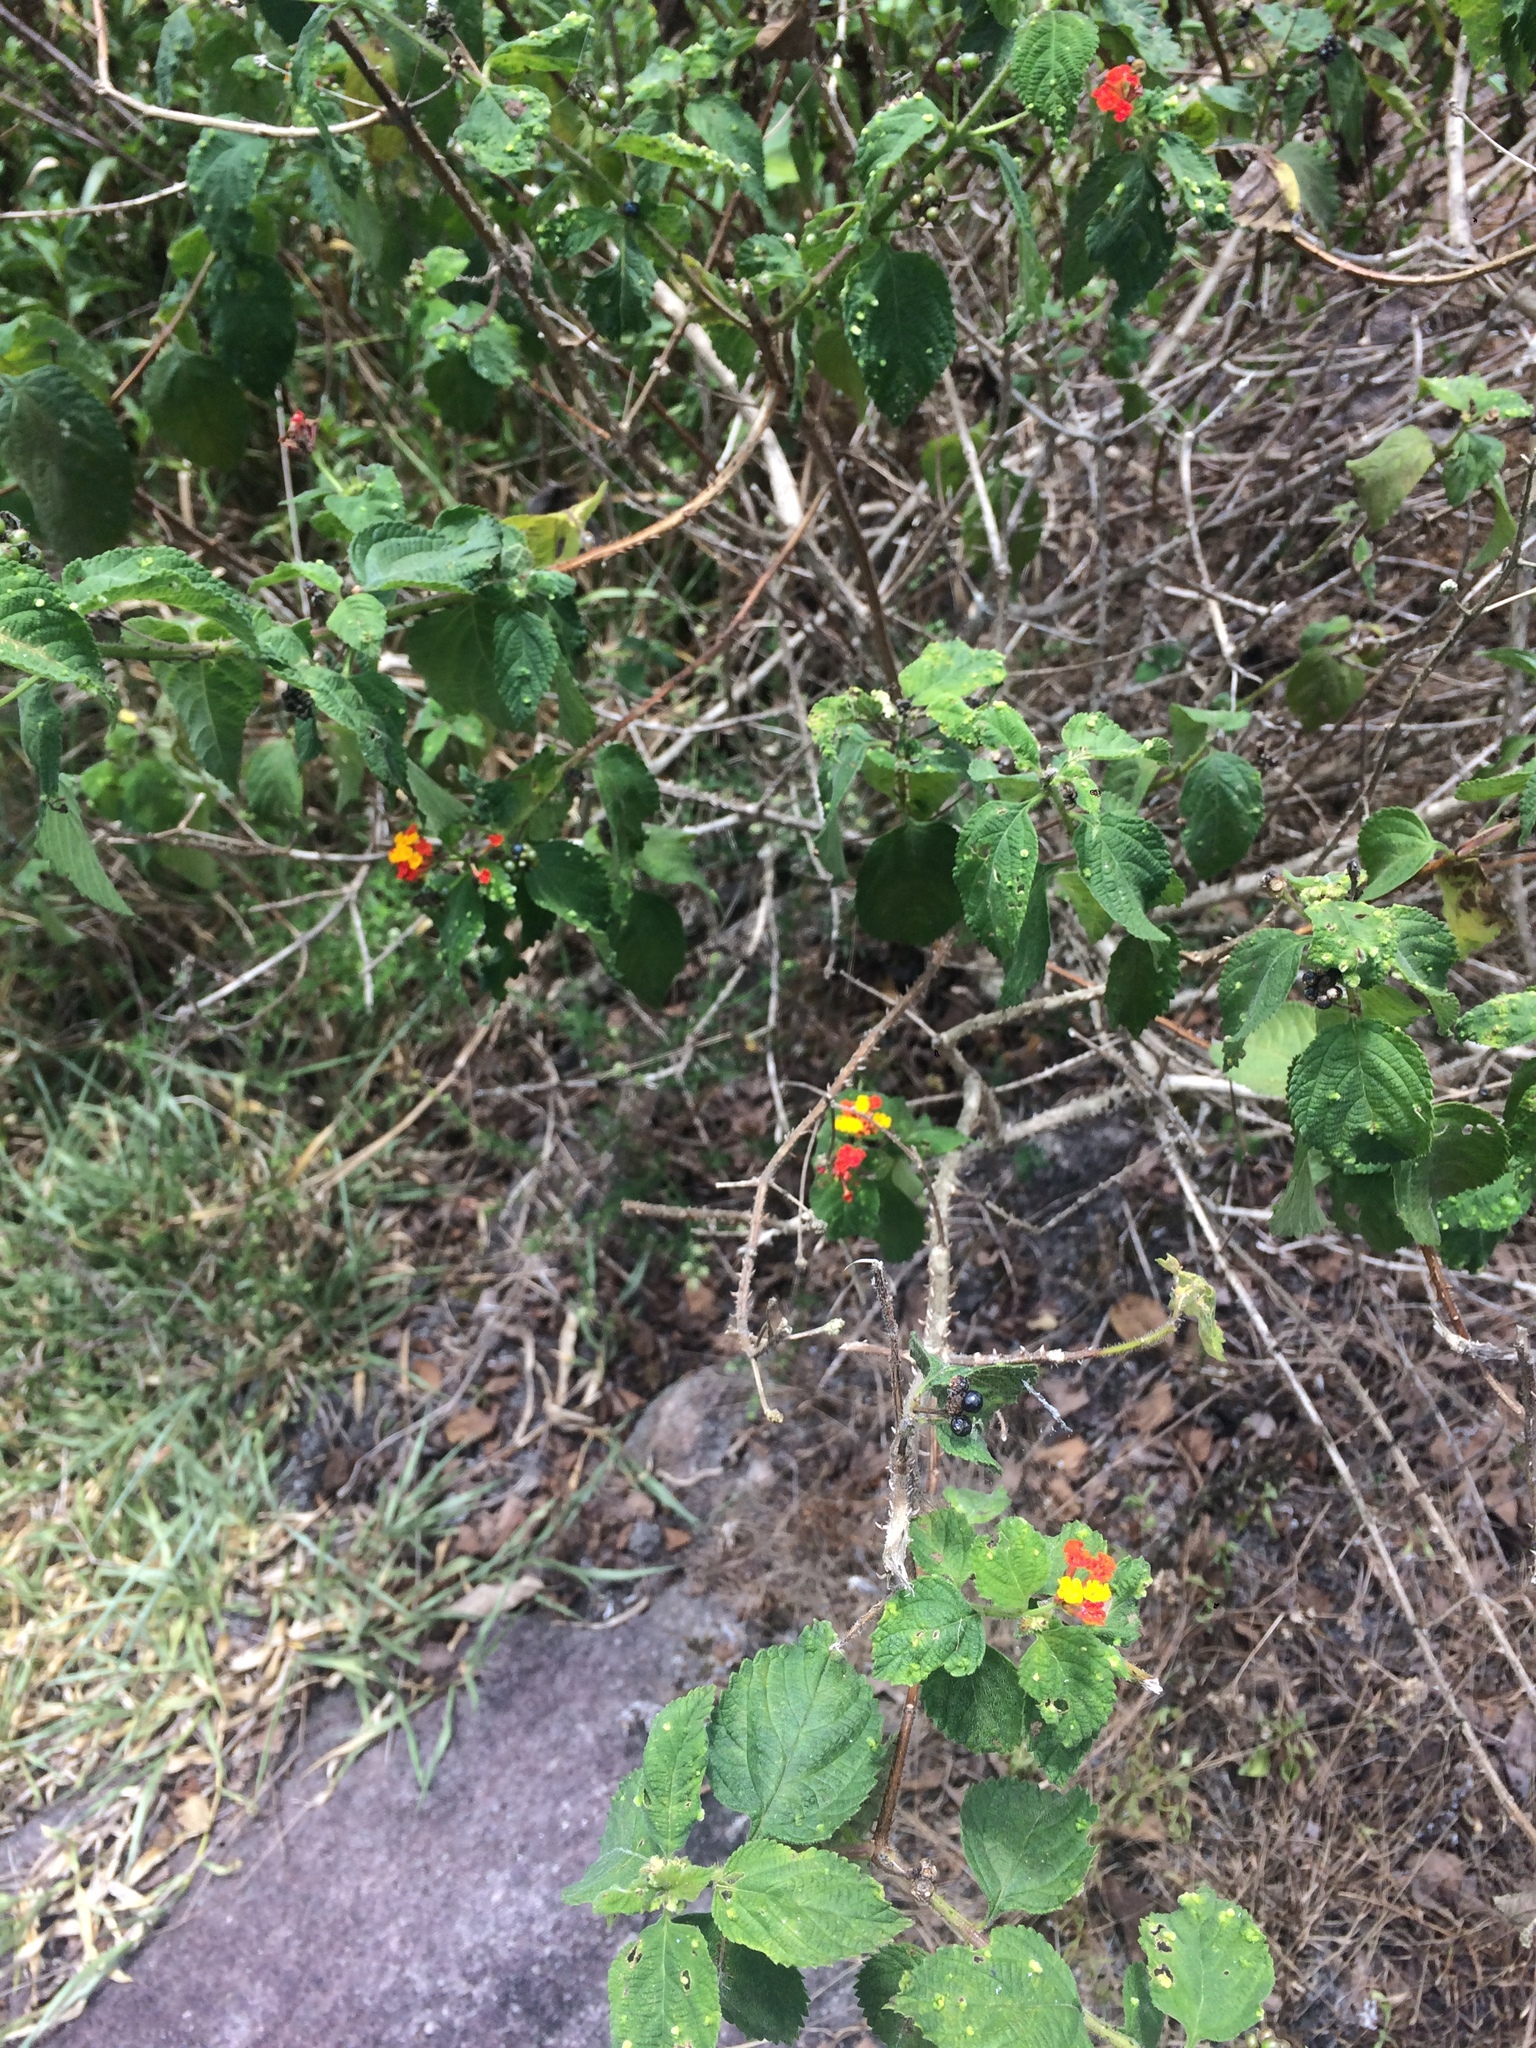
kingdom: Plantae
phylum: Tracheophyta
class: Magnoliopsida
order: Lamiales
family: Verbenaceae
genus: Lantana
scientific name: Lantana hirsuta
